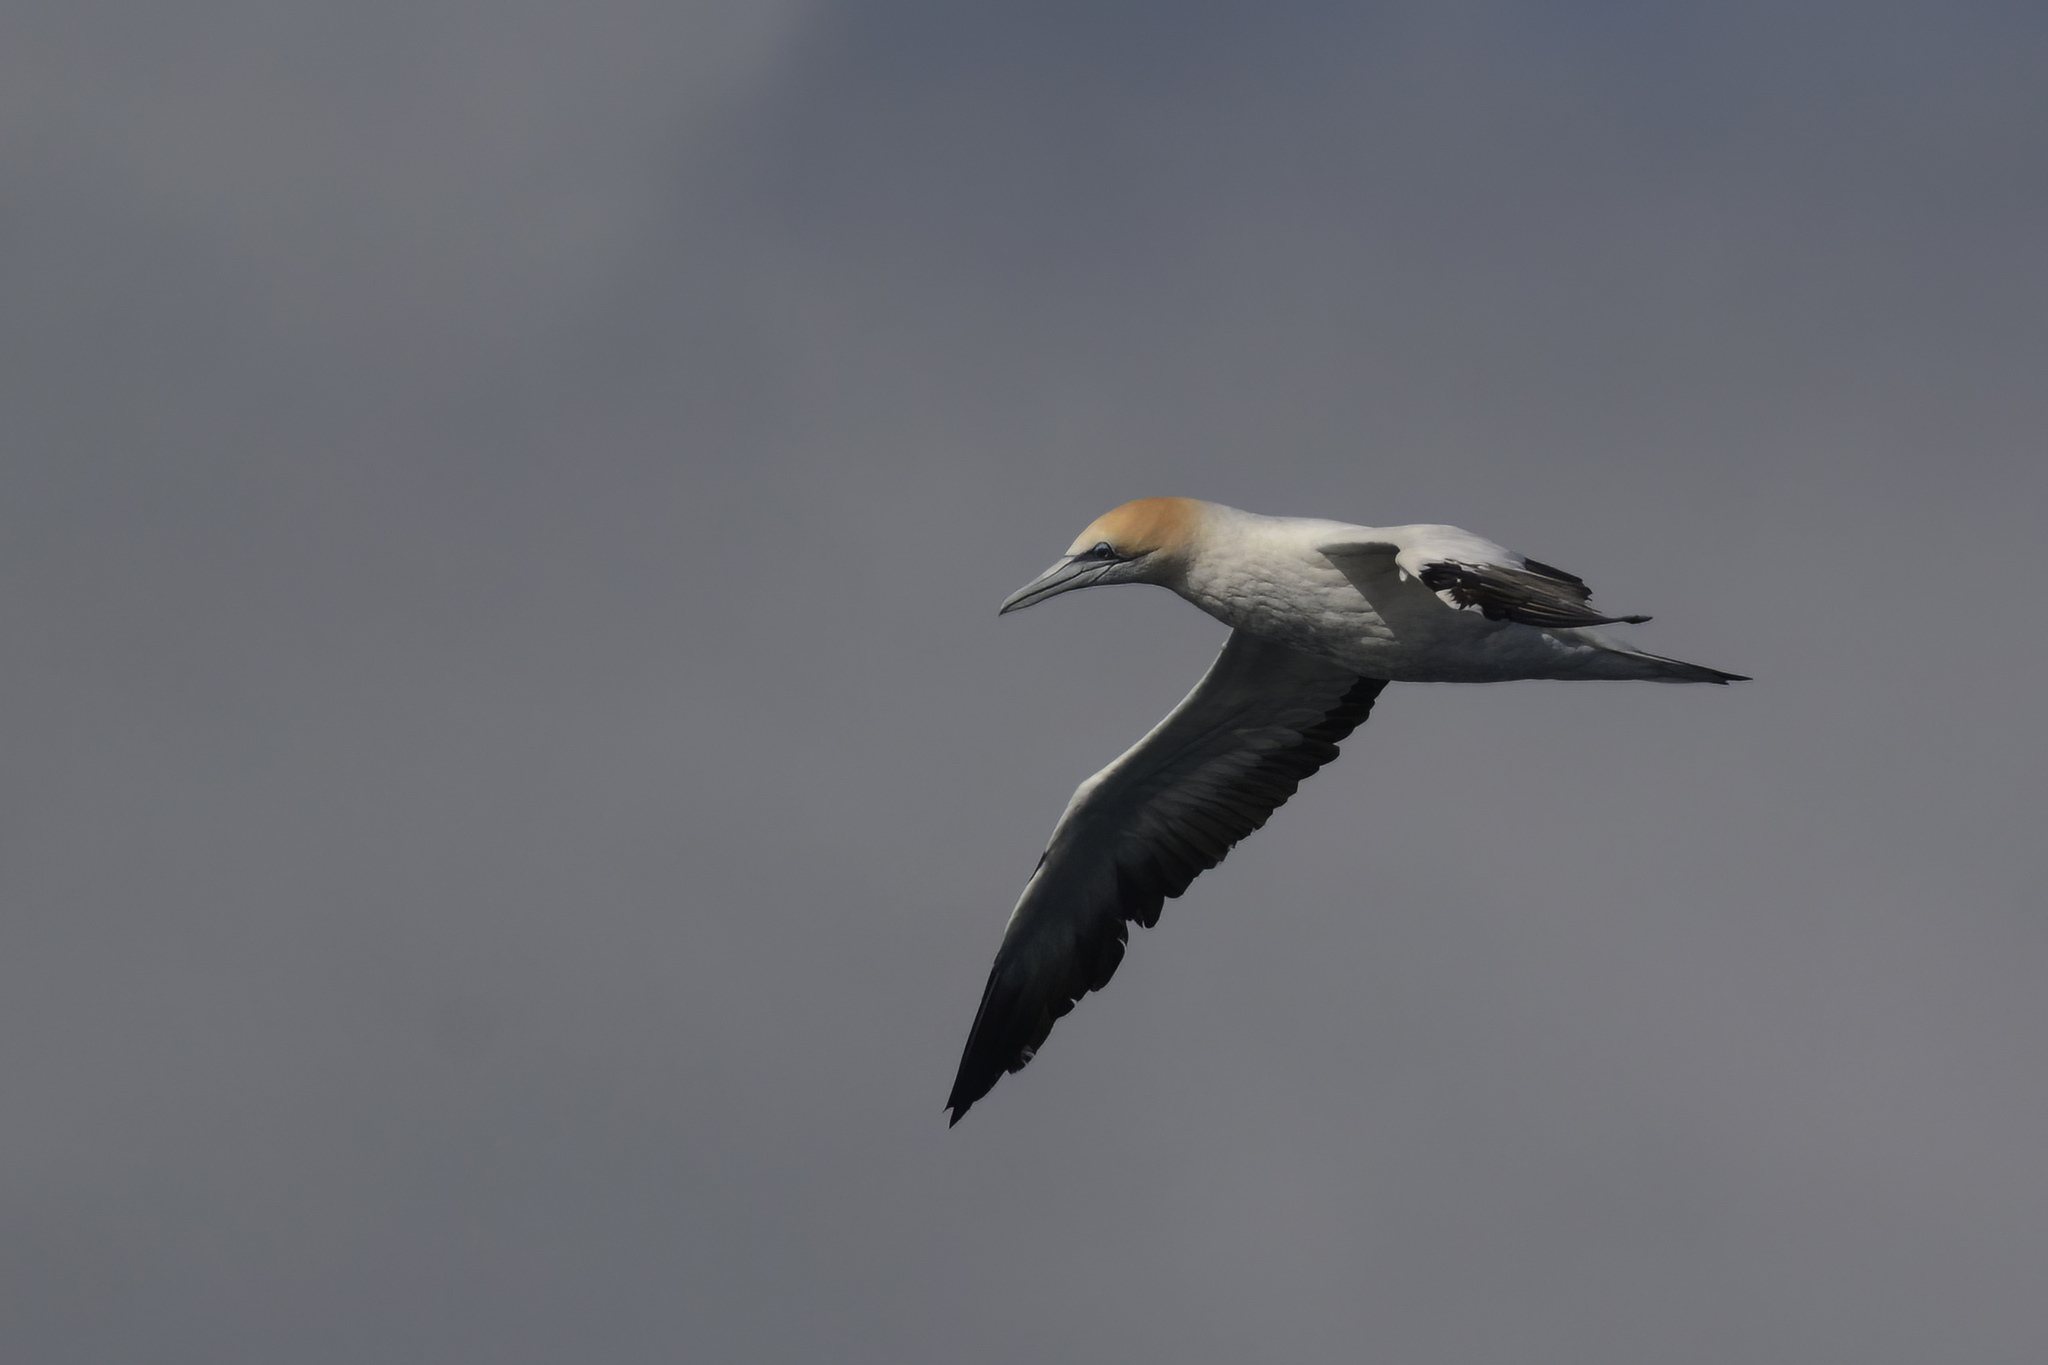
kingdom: Animalia
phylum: Chordata
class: Aves
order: Suliformes
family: Sulidae
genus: Morus
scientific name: Morus serrator
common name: Australasian gannet
